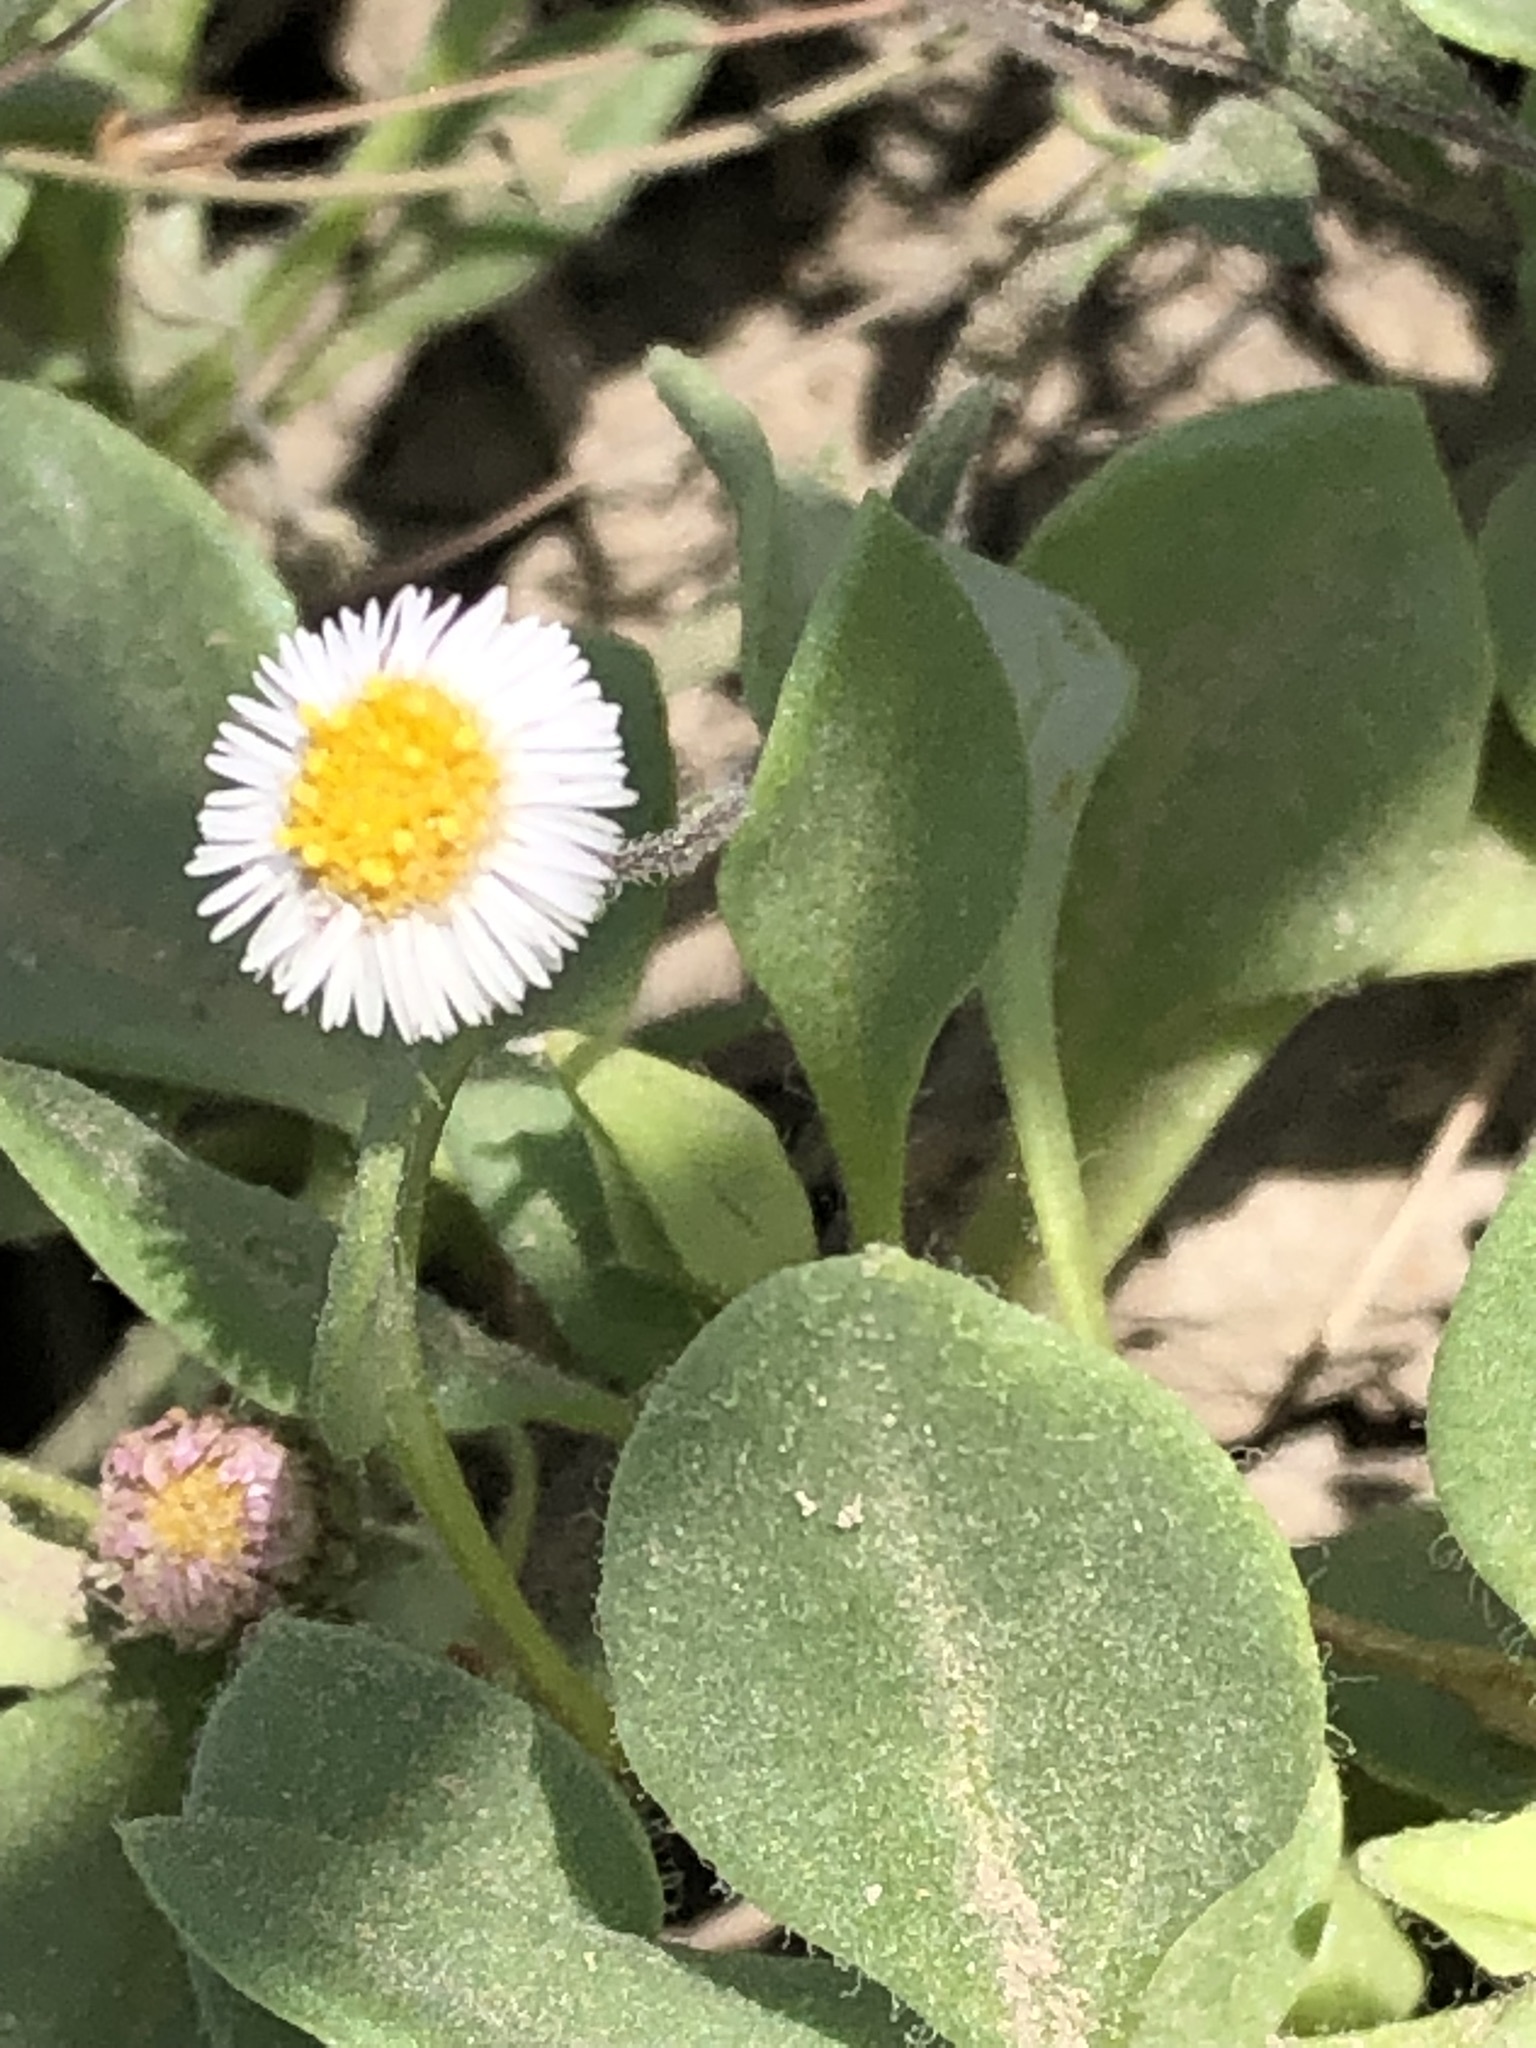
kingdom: Plantae
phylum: Tracheophyta
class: Magnoliopsida
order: Asterales
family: Asteraceae
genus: Erigeron
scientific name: Erigeron leptorhizon
